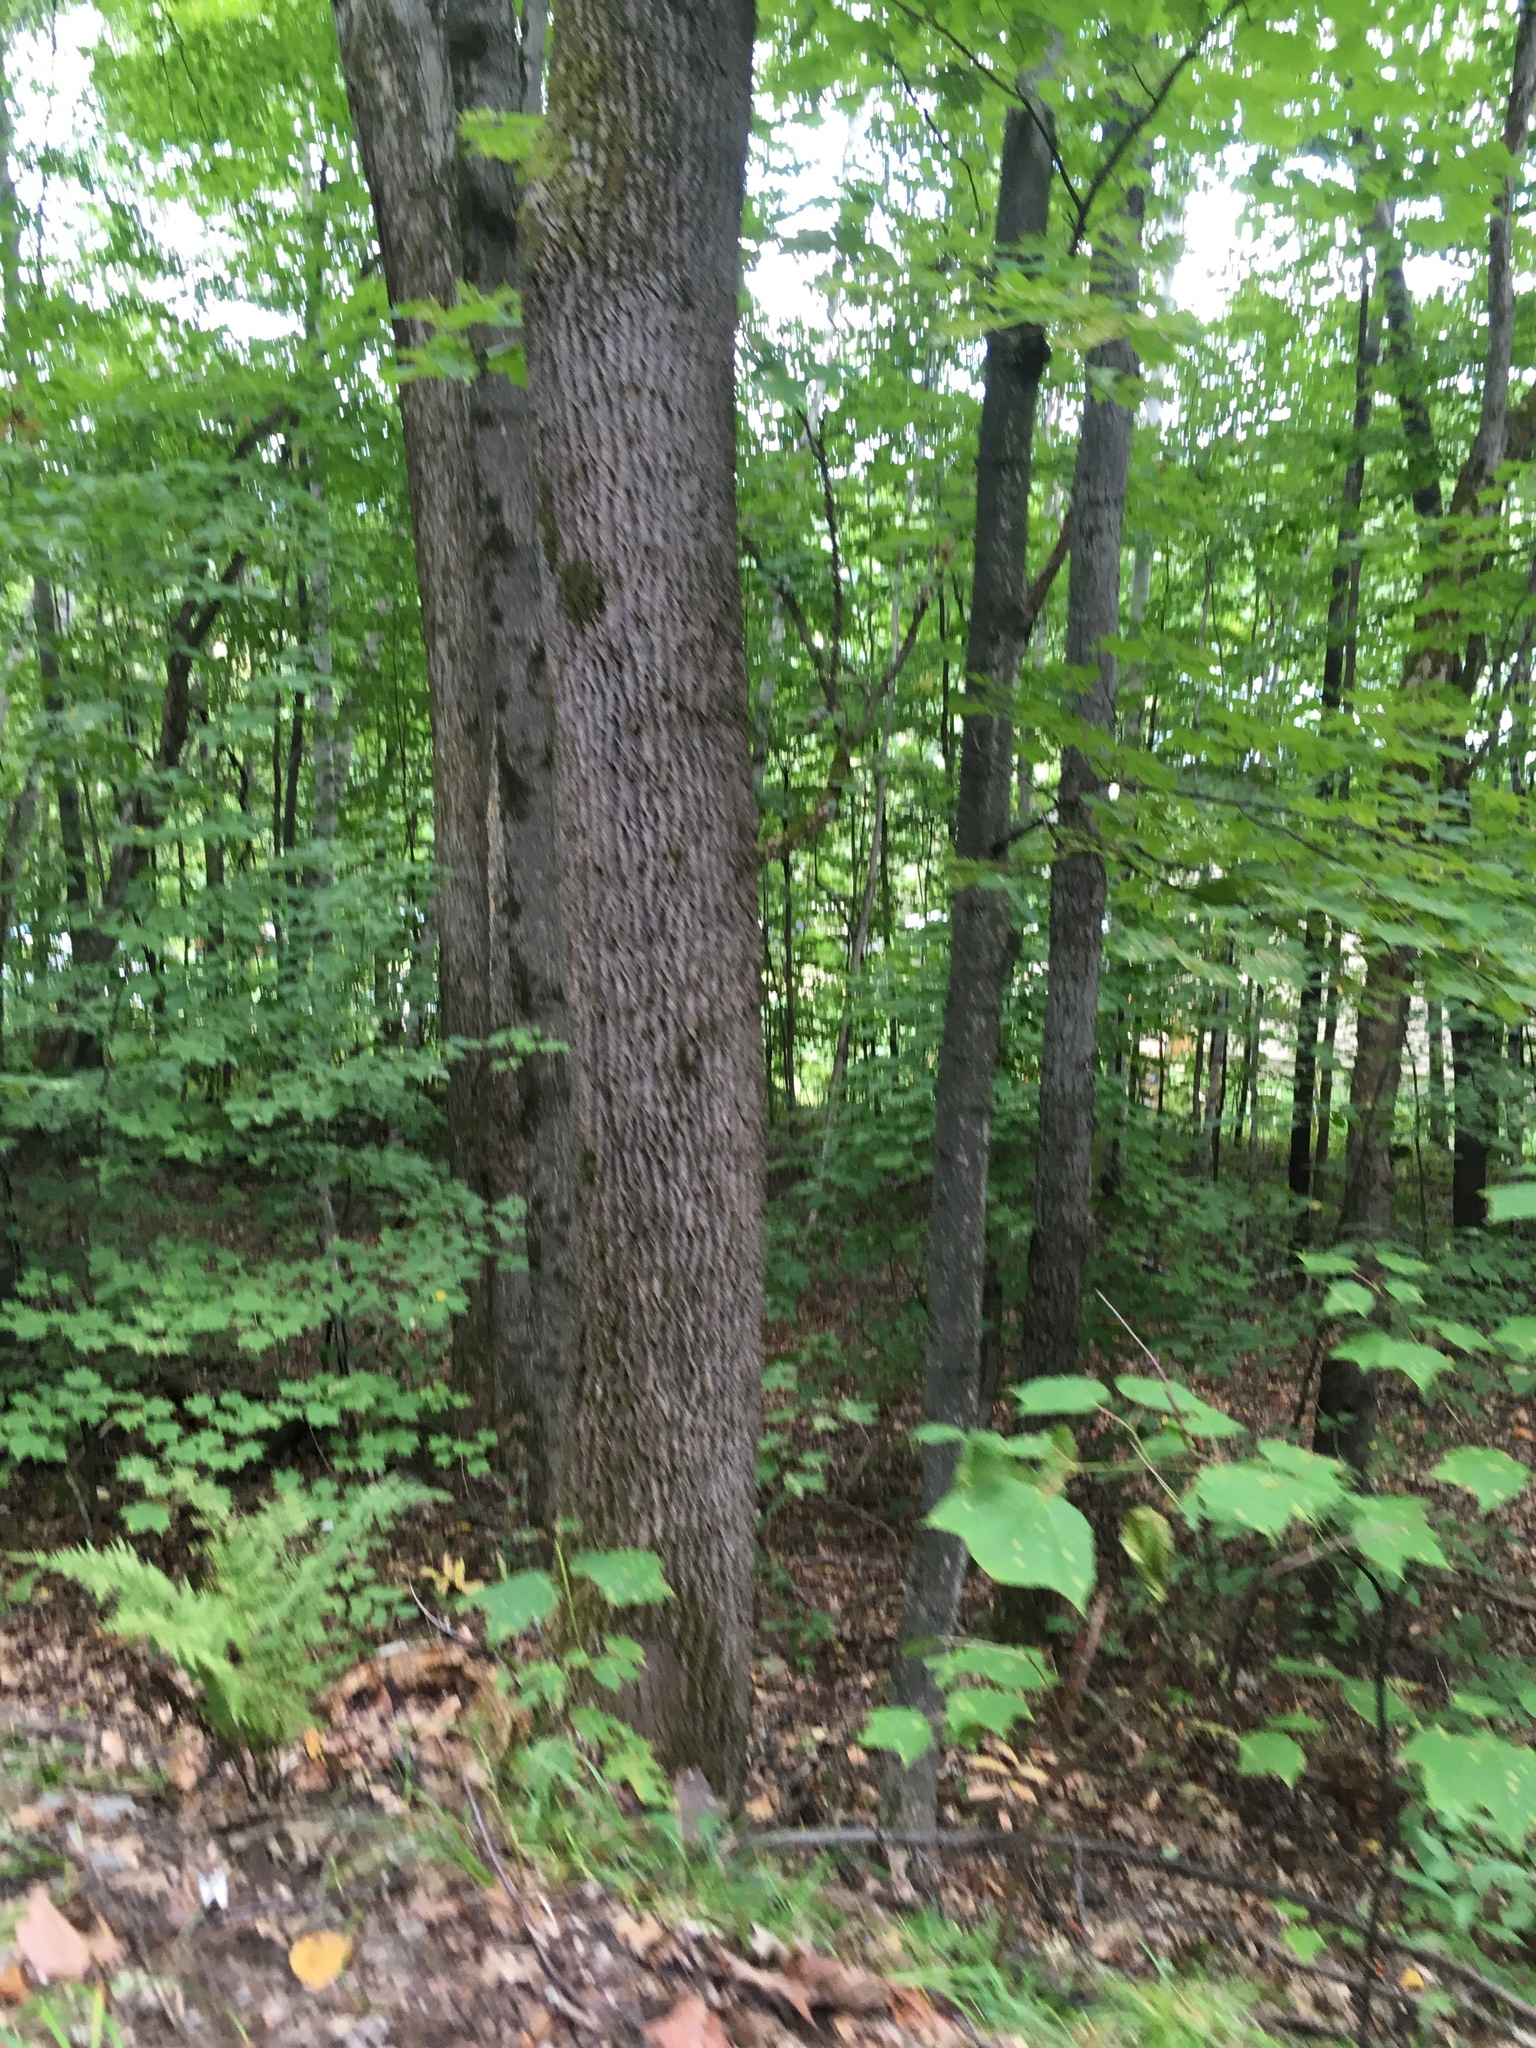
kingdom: Plantae
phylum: Tracheophyta
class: Magnoliopsida
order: Lamiales
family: Oleaceae
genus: Fraxinus
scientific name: Fraxinus americana
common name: White ash
